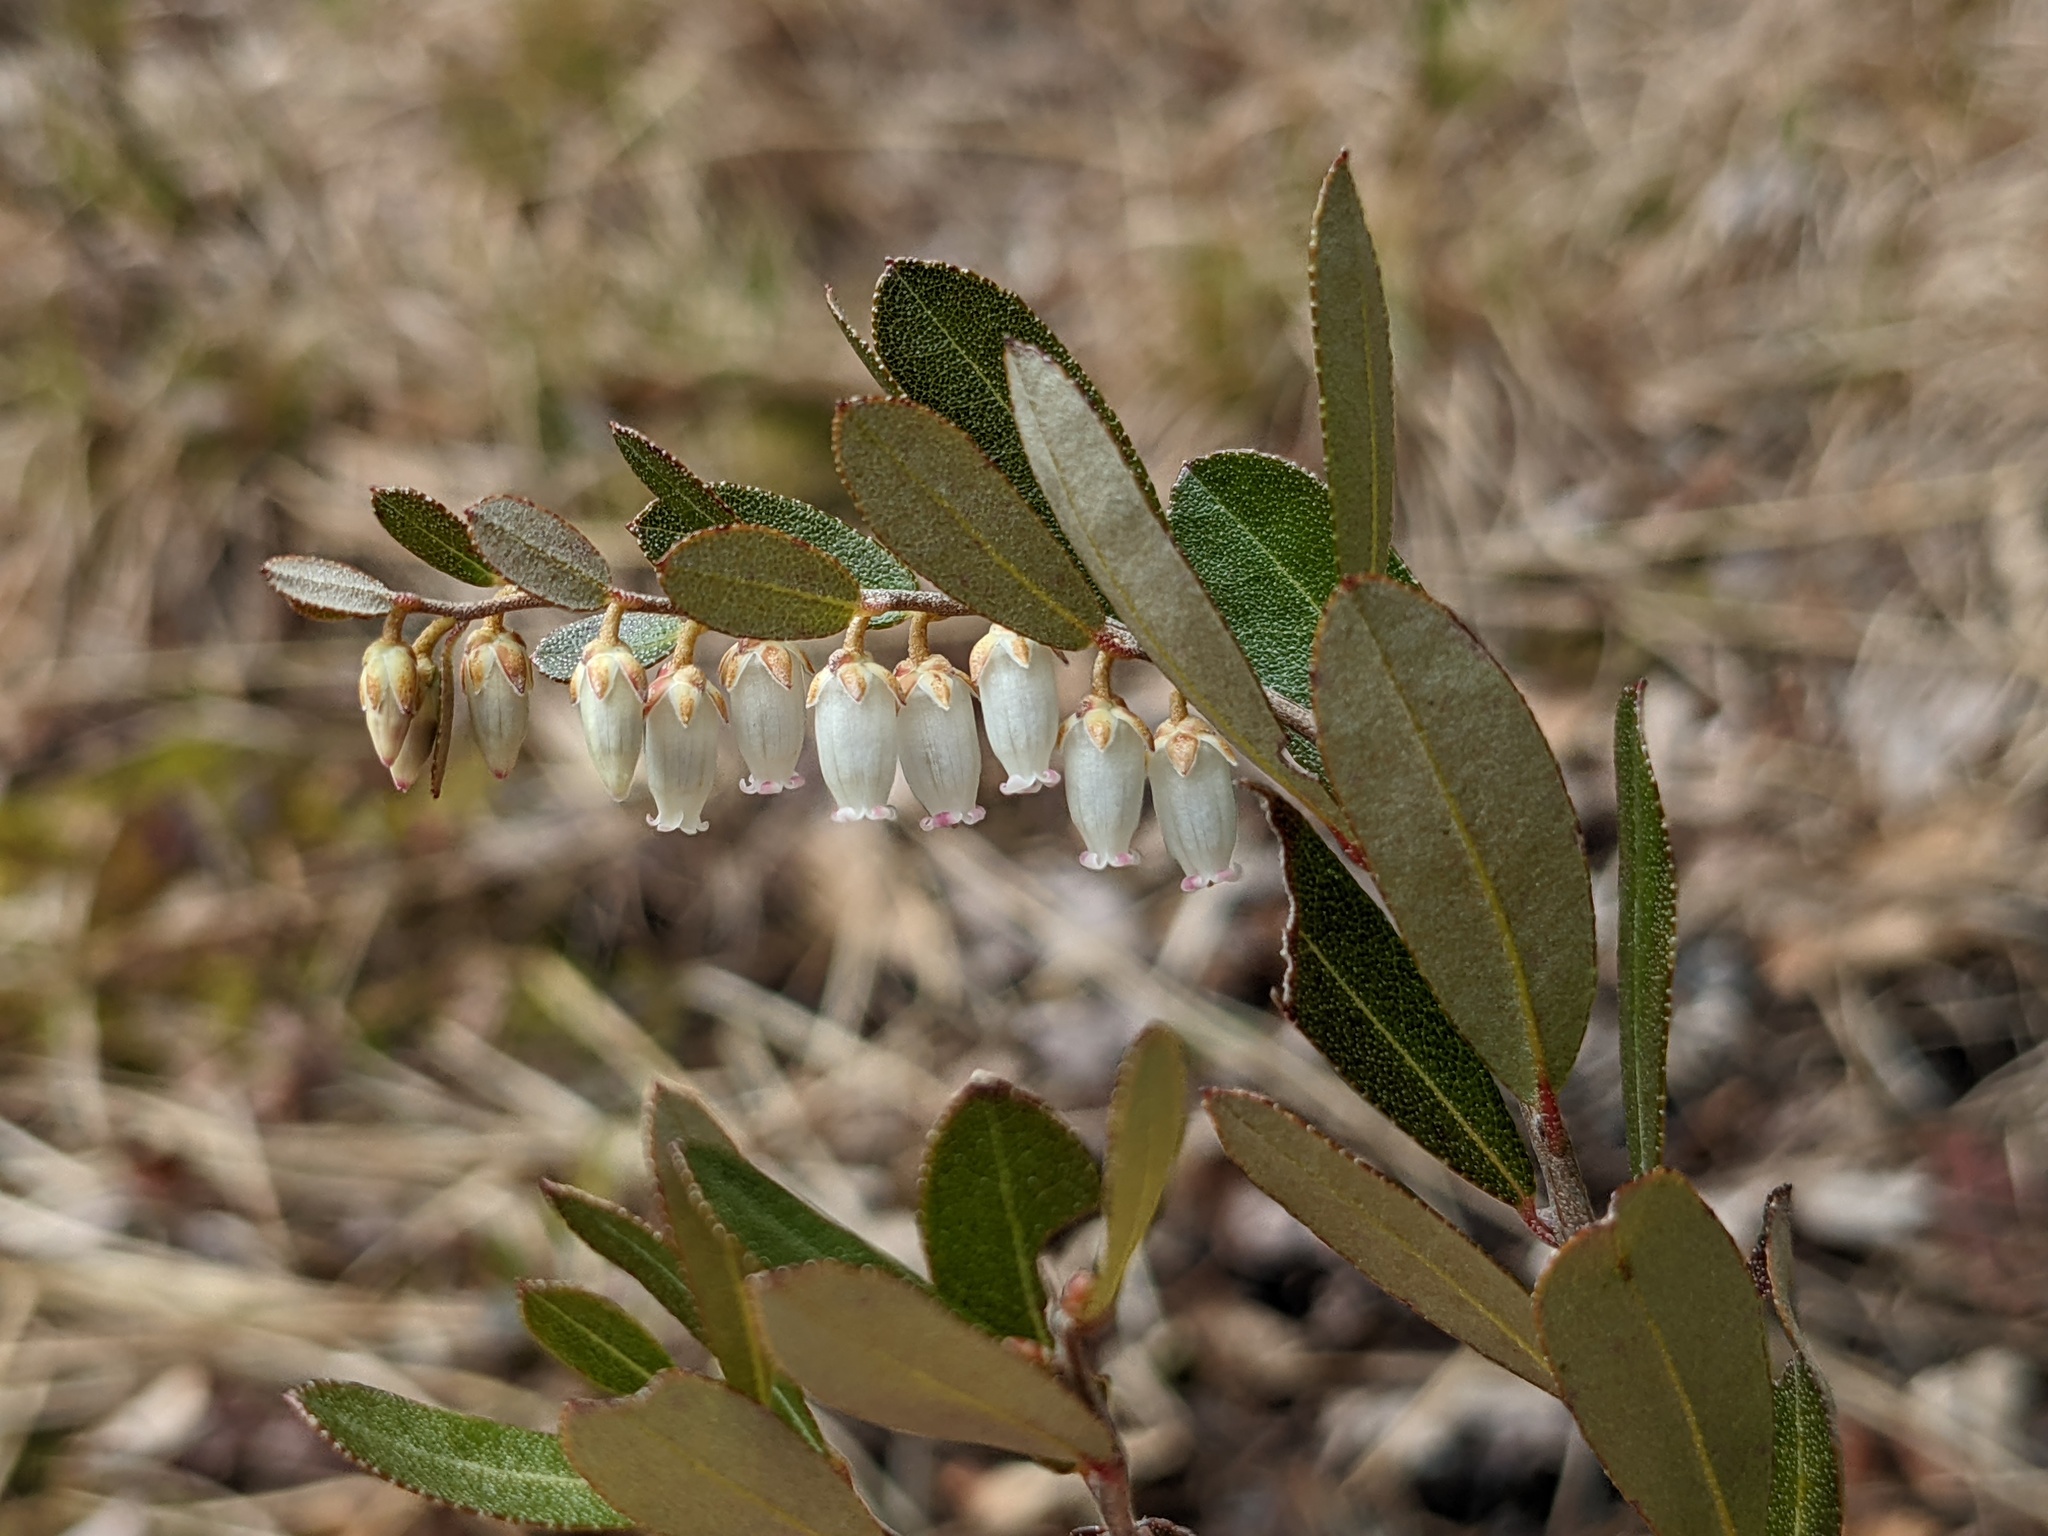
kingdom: Plantae
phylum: Tracheophyta
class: Magnoliopsida
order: Ericales
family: Ericaceae
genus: Chamaedaphne
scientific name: Chamaedaphne calyculata
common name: Leatherleaf
